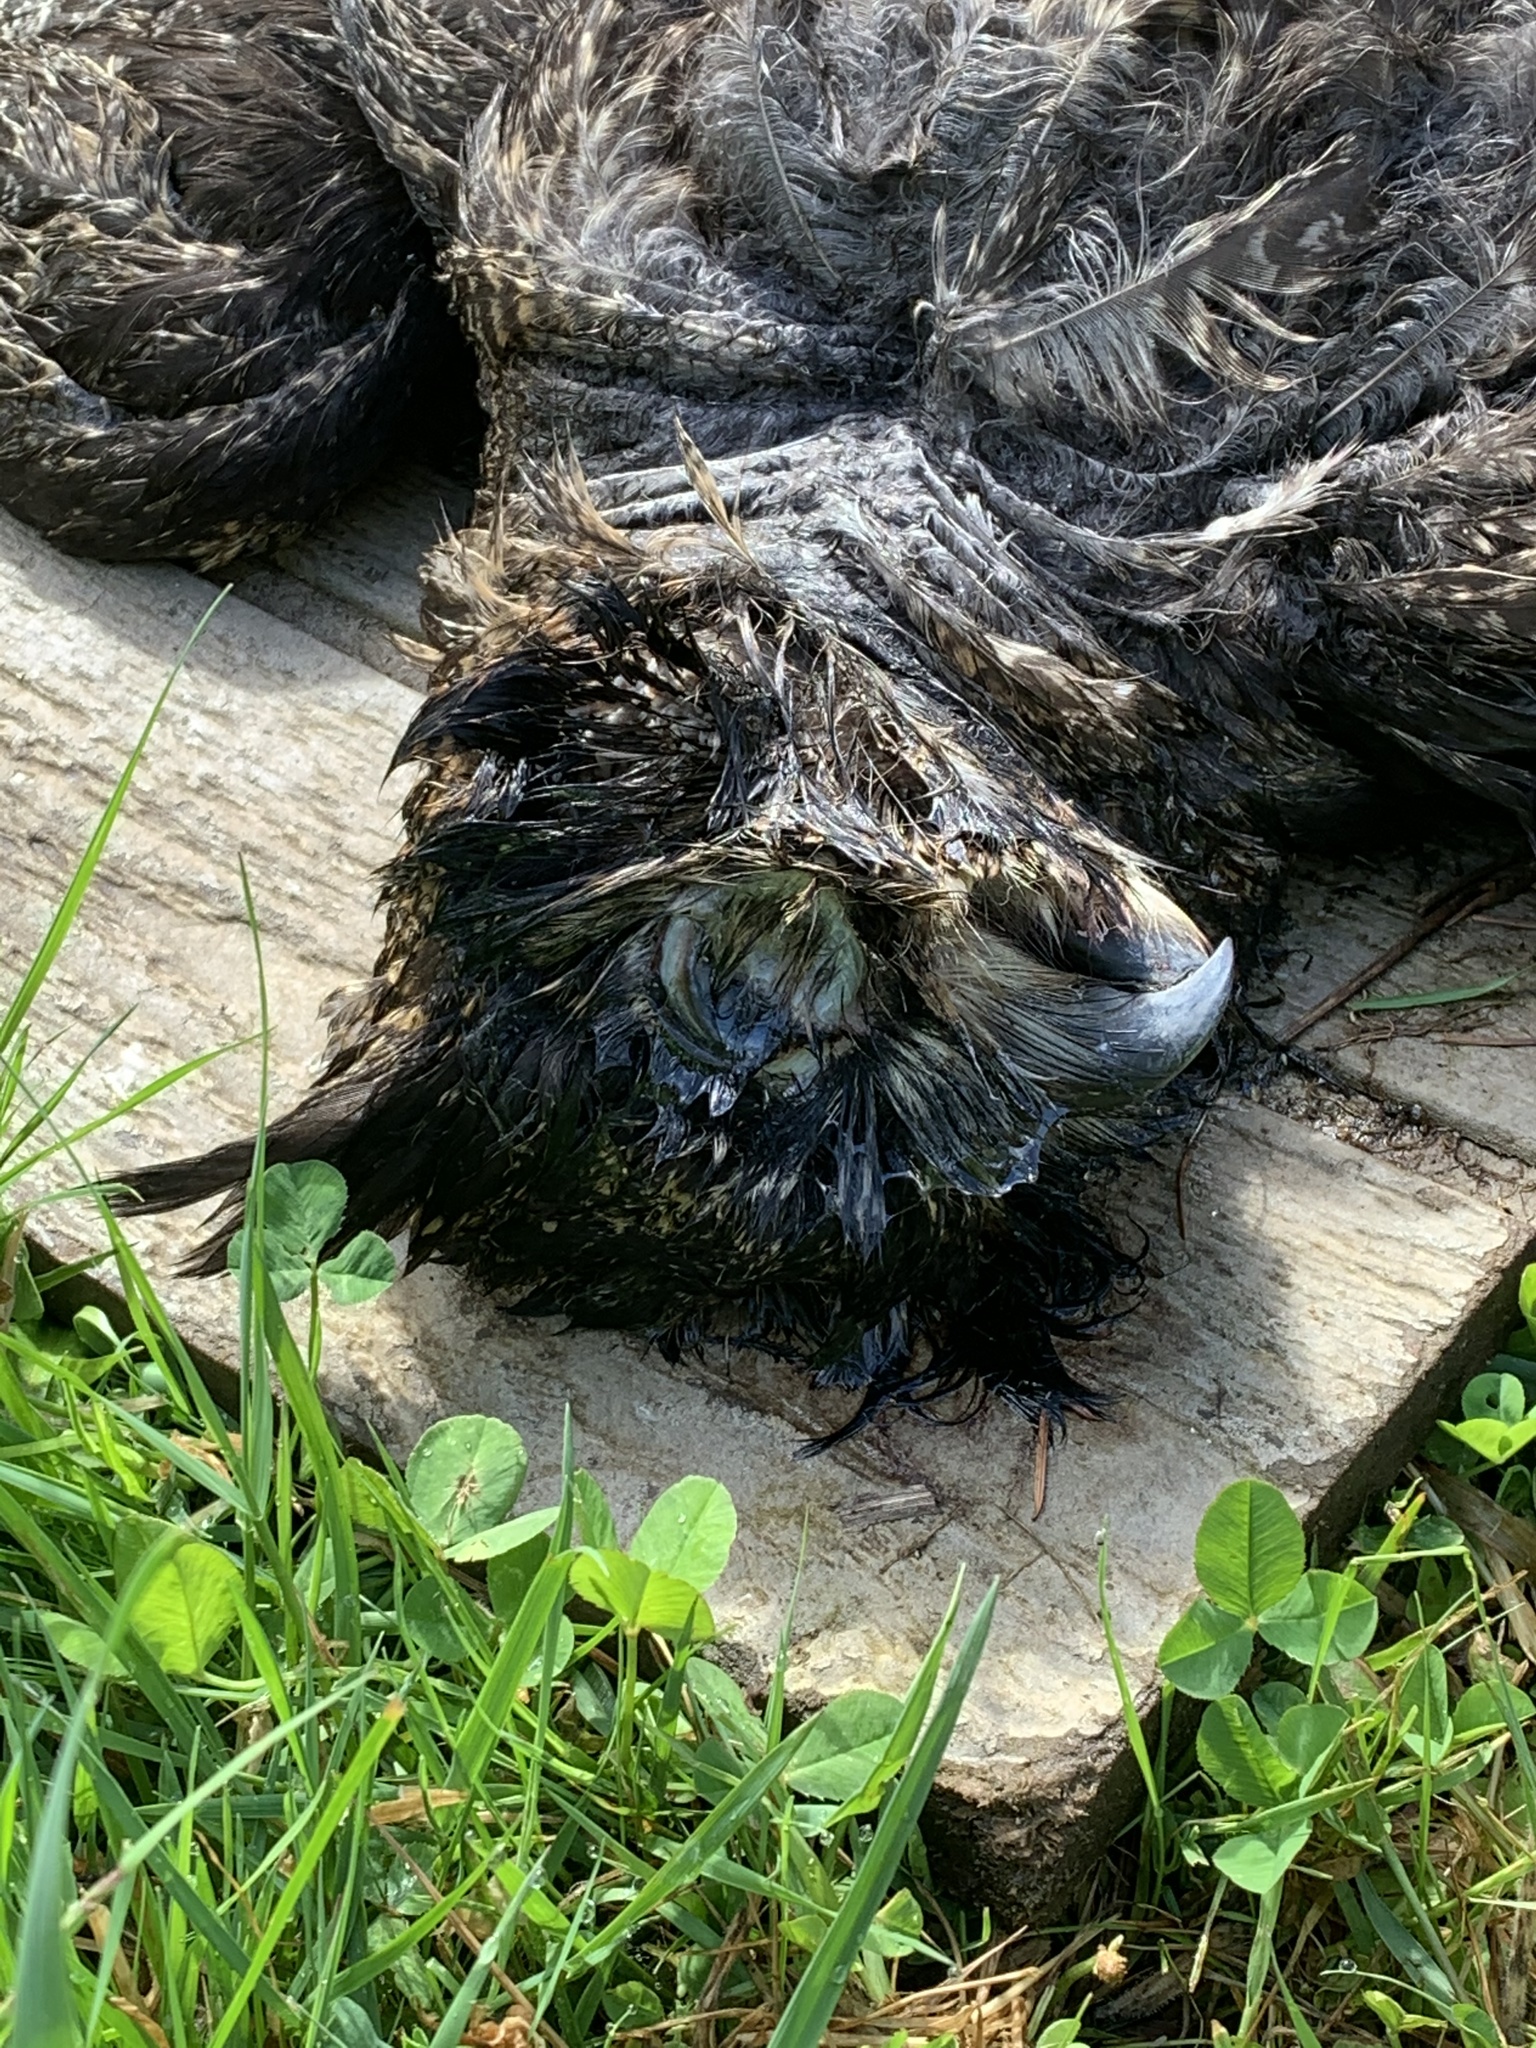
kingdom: Animalia
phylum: Chordata
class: Aves
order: Strigiformes
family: Strigidae
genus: Bubo
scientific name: Bubo virginianus
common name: Great horned owl
